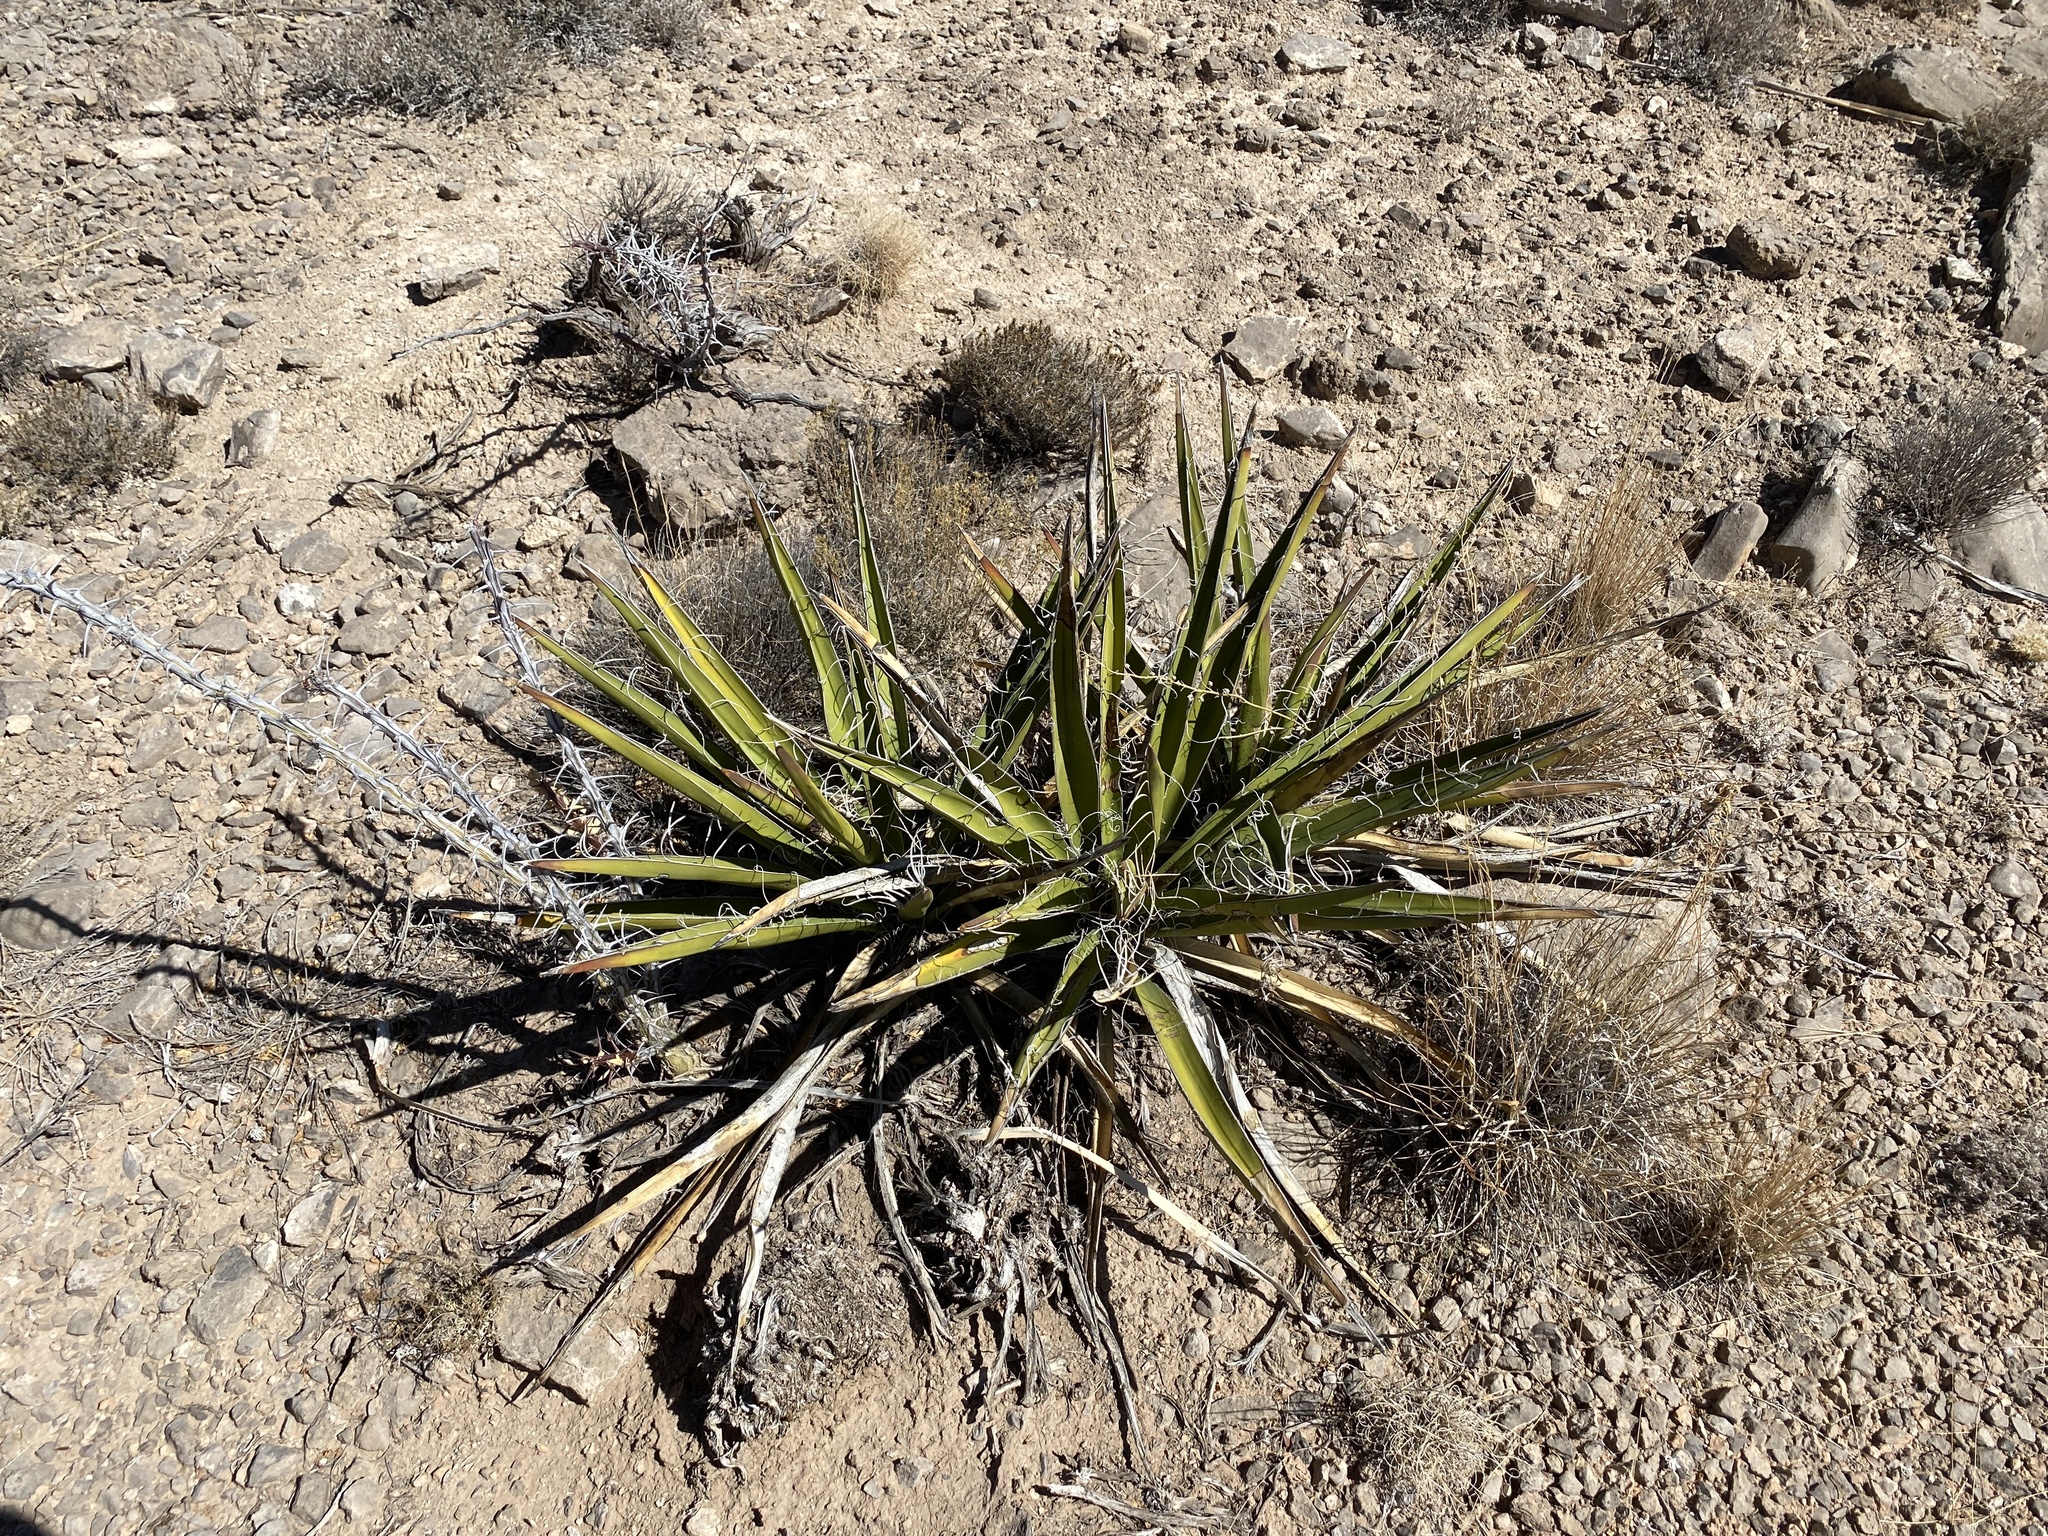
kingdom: Plantae
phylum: Tracheophyta
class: Liliopsida
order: Asparagales
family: Asparagaceae
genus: Yucca
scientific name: Yucca baccata
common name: Banana yucca
